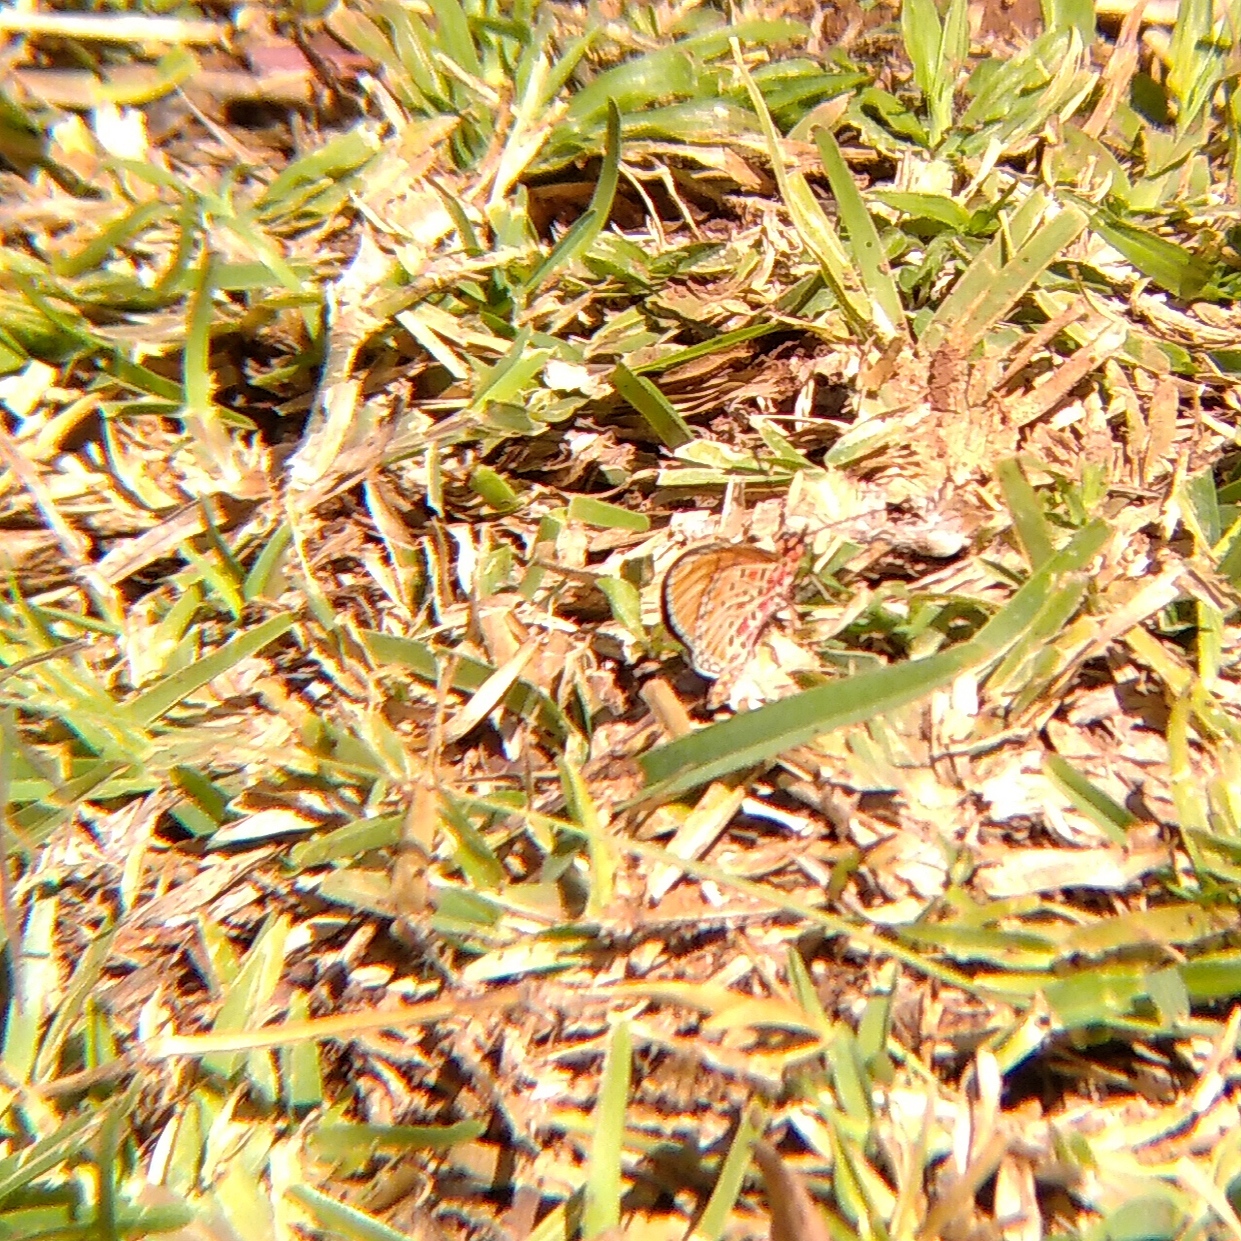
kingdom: Animalia
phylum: Arthropoda
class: Insecta
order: Lepidoptera
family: Nymphalidae
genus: Stephenia
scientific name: Stephenia
